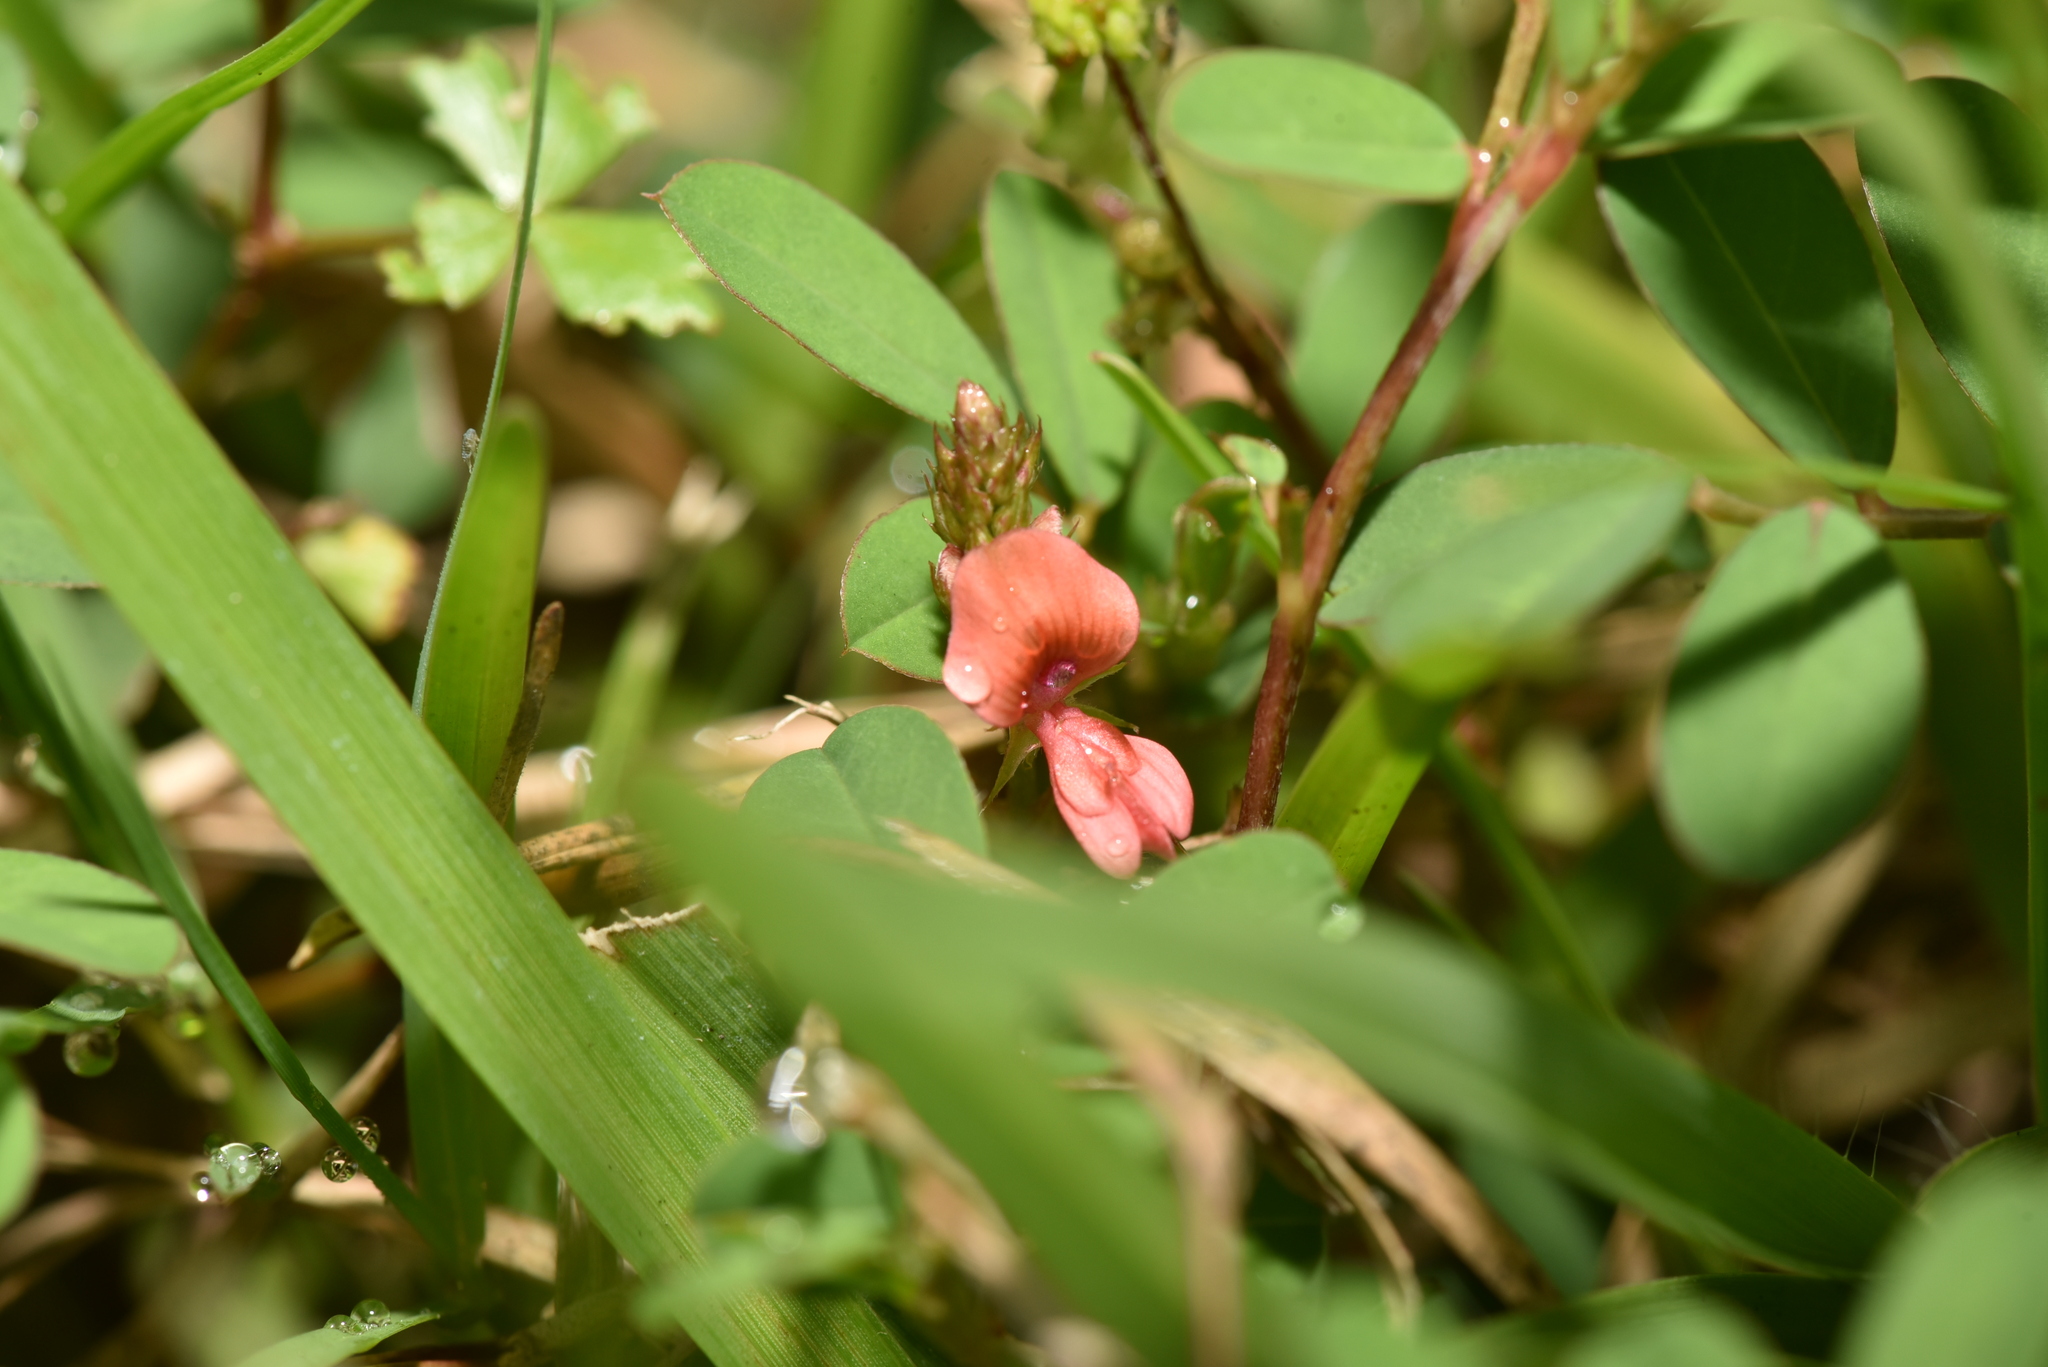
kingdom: Plantae
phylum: Tracheophyta
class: Magnoliopsida
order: Fabales
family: Fabaceae
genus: Indigofera
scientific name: Indigofera hendecaphylla
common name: Trailing indigo
